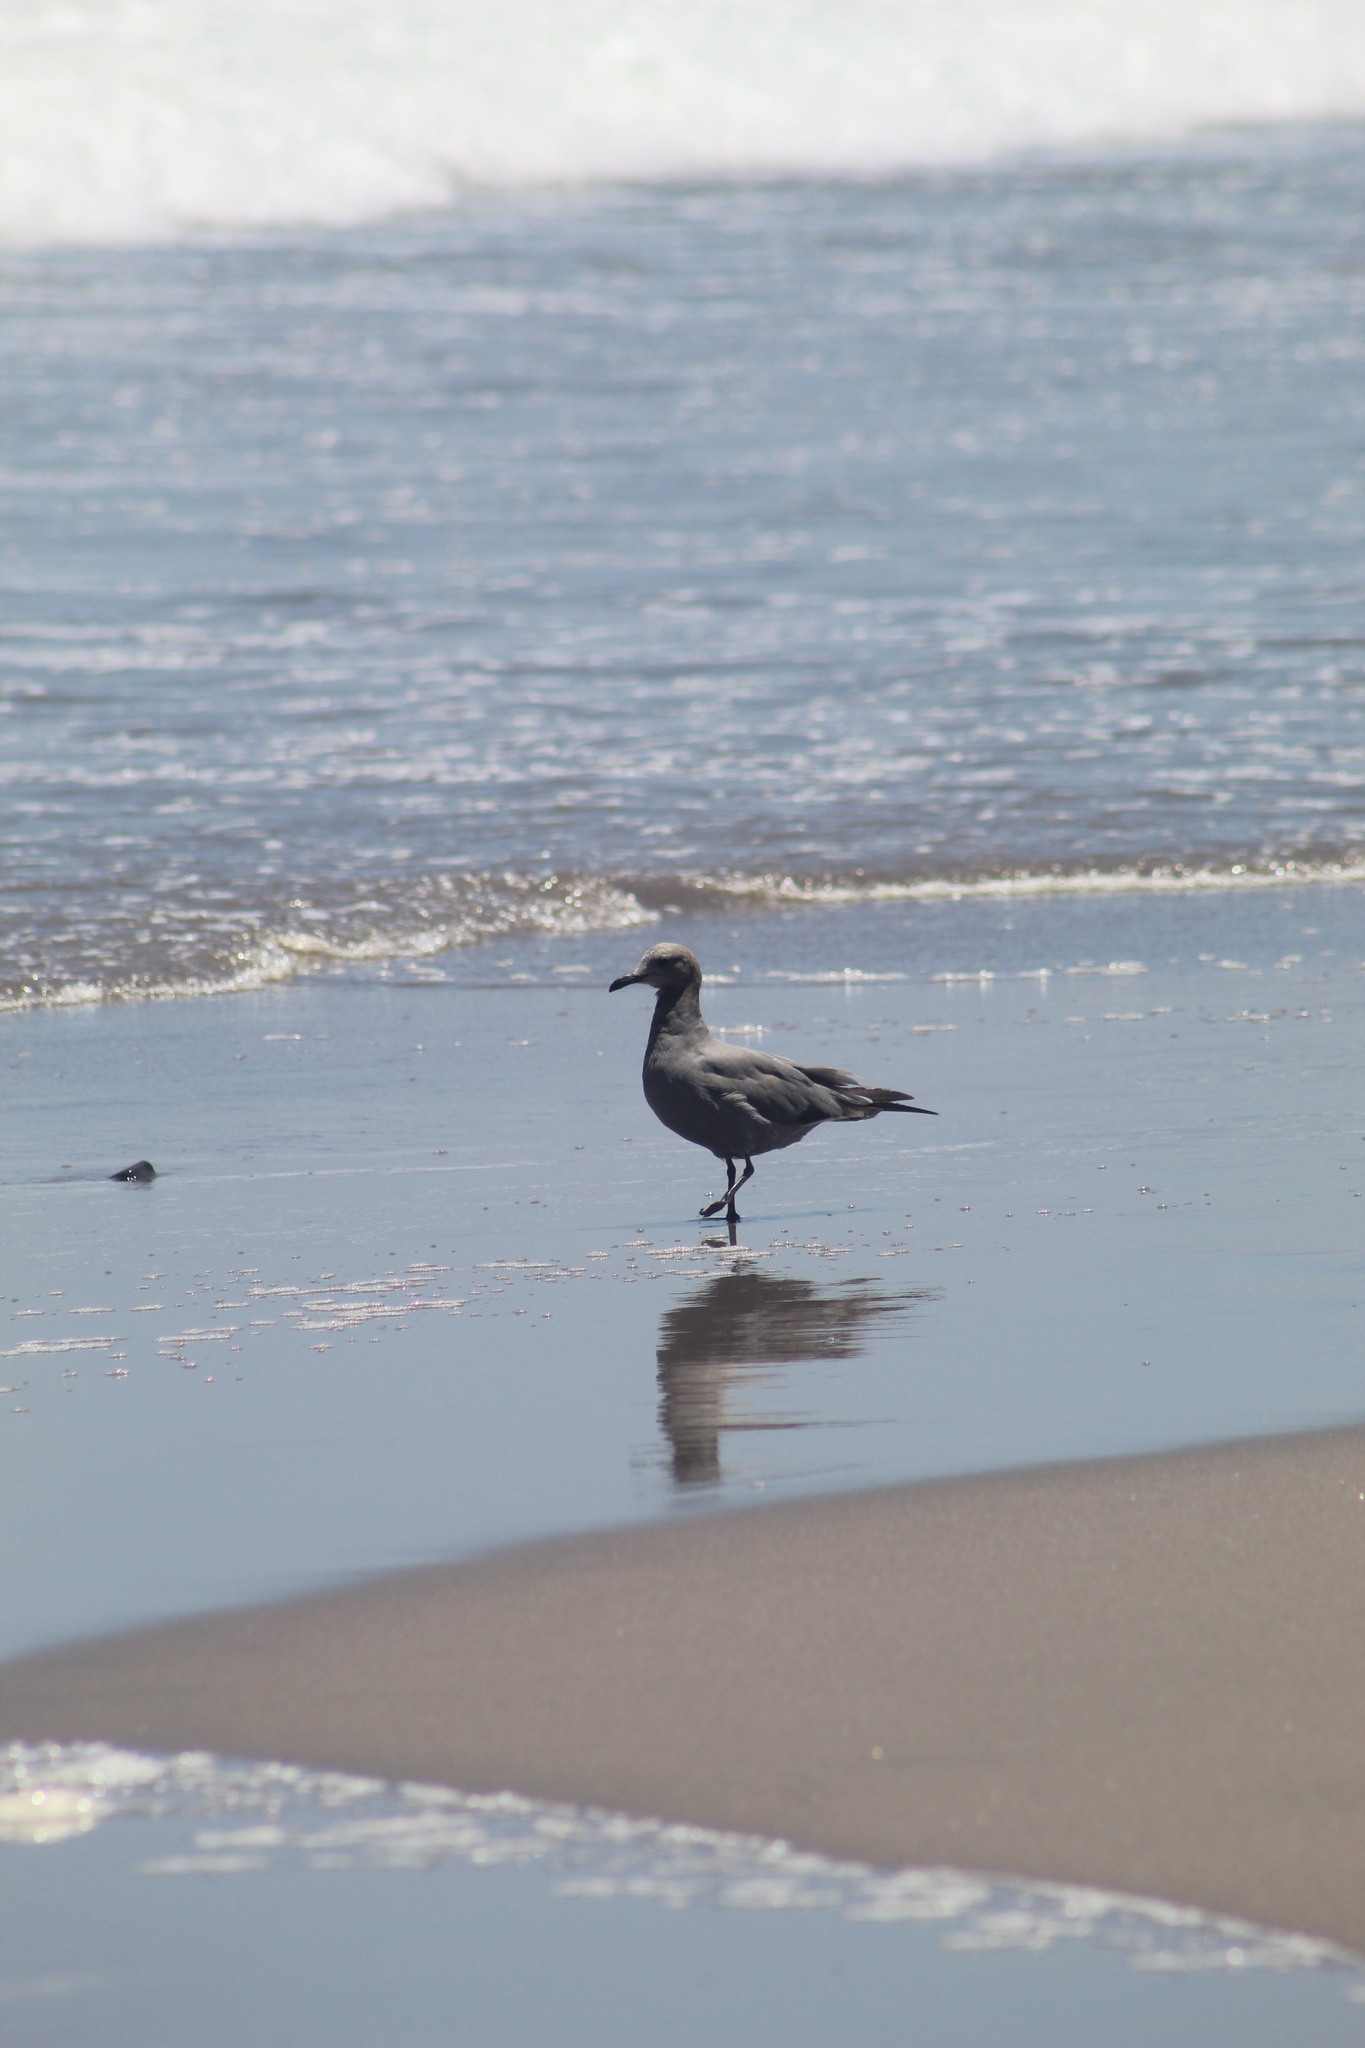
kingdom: Animalia
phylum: Chordata
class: Aves
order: Charadriiformes
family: Laridae
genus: Leucophaeus
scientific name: Leucophaeus modestus
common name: Gray gull
